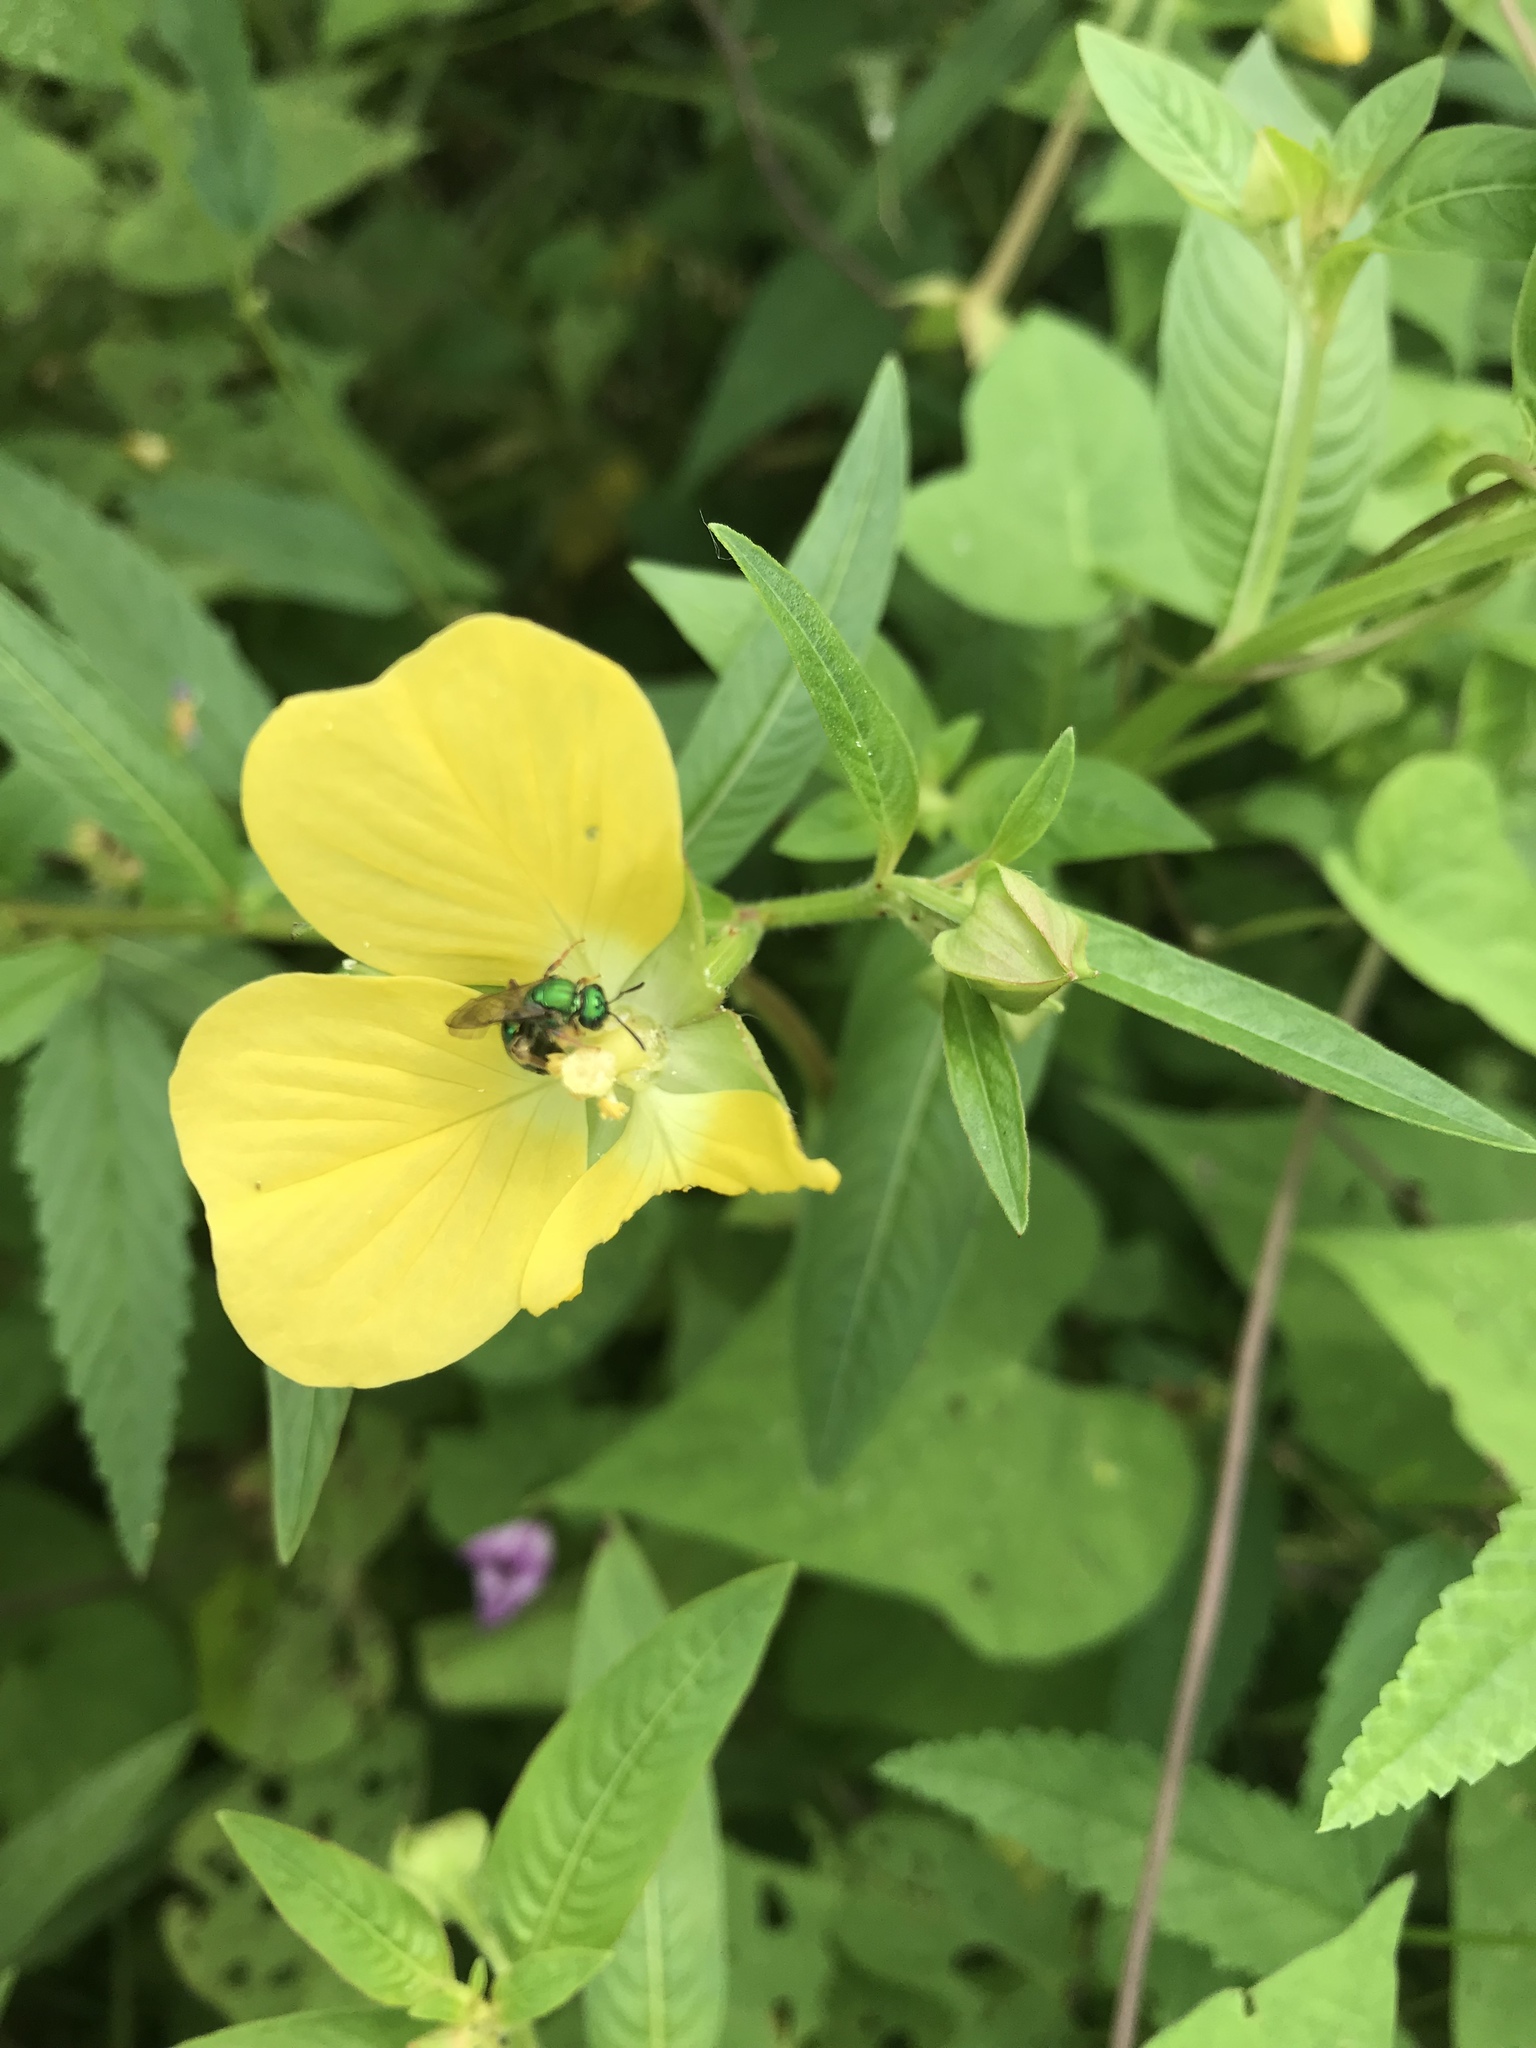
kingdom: Animalia
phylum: Arthropoda
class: Insecta
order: Hymenoptera
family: Halictidae
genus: Augochlora
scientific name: Augochlora pura
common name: Pure green sweat bee
